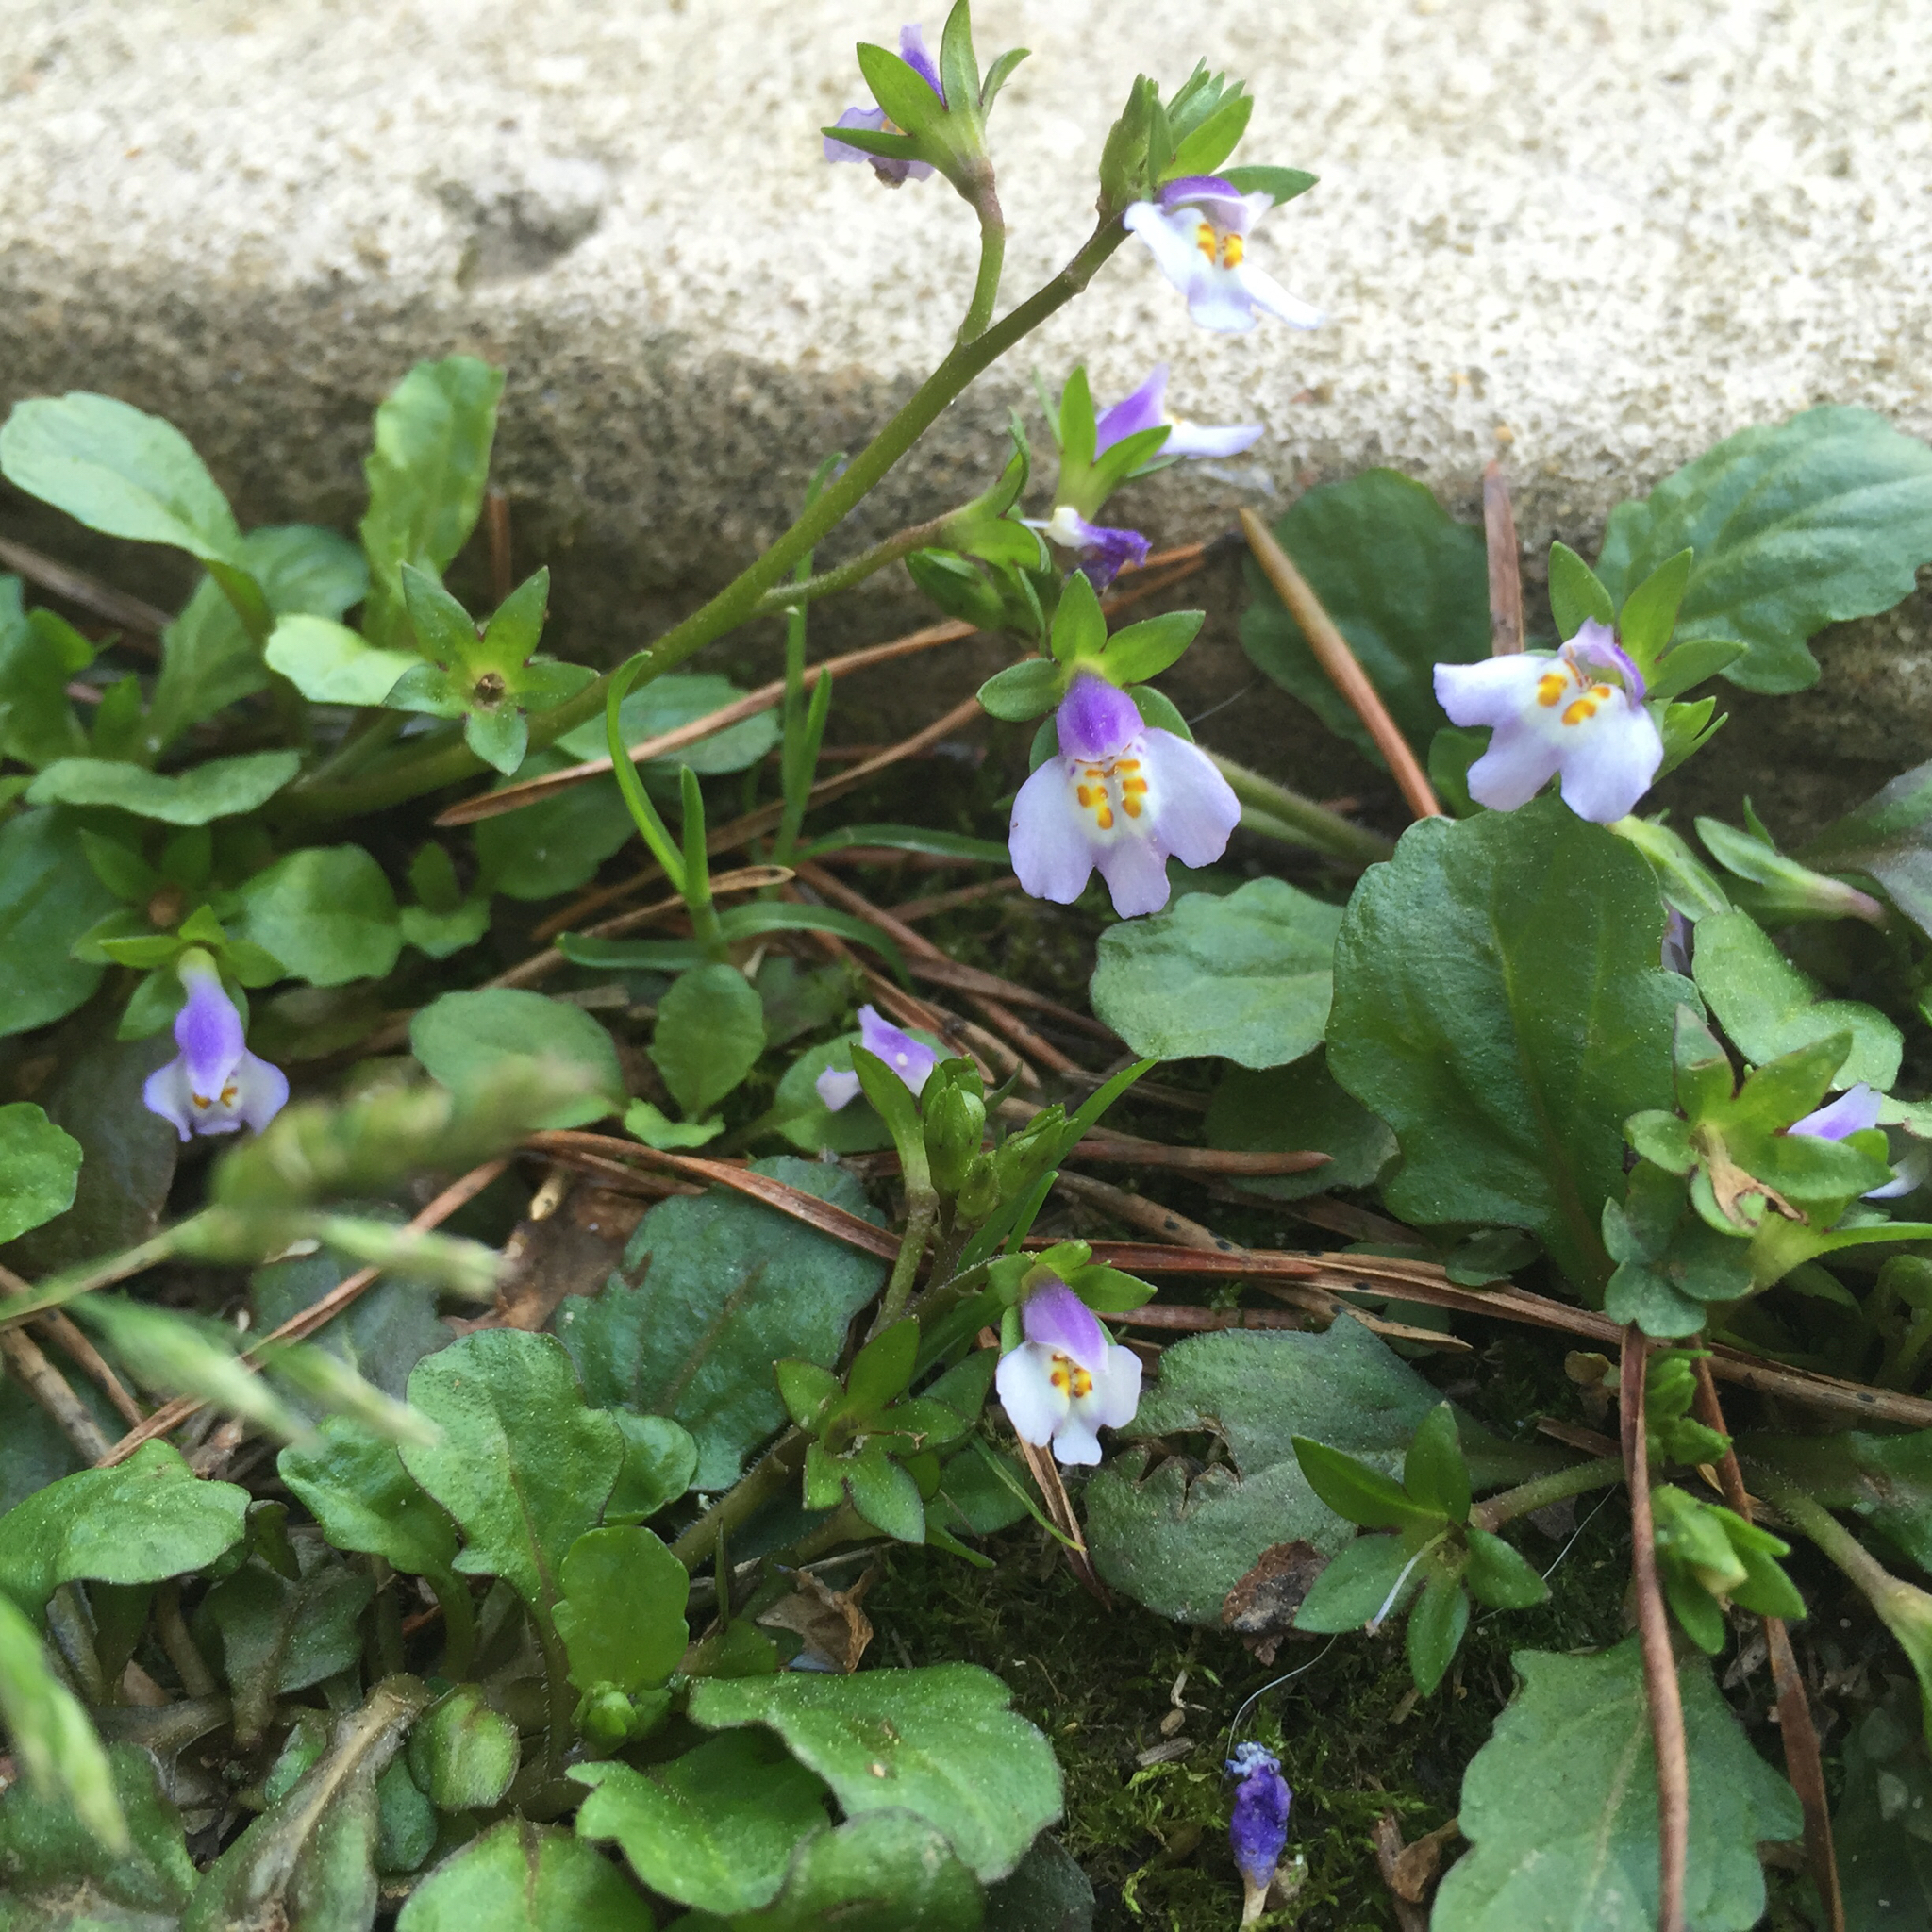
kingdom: Plantae
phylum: Tracheophyta
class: Magnoliopsida
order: Lamiales
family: Mazaceae
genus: Mazus
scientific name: Mazus pumilus
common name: Japanese mazus
